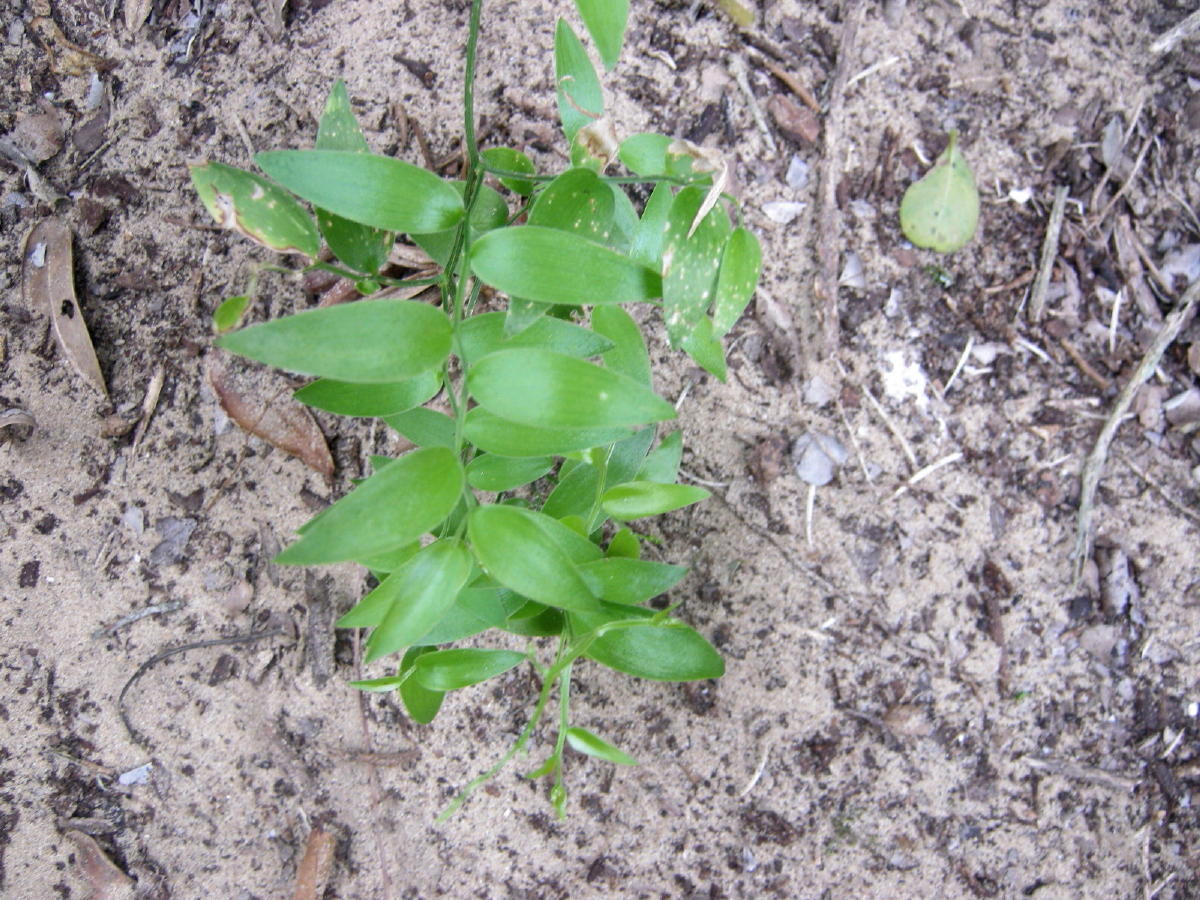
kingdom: Plantae
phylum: Tracheophyta
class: Liliopsida
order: Asparagales
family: Asparagaceae
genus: Asparagus
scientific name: Asparagus asparagoides
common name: African asparagus fern
